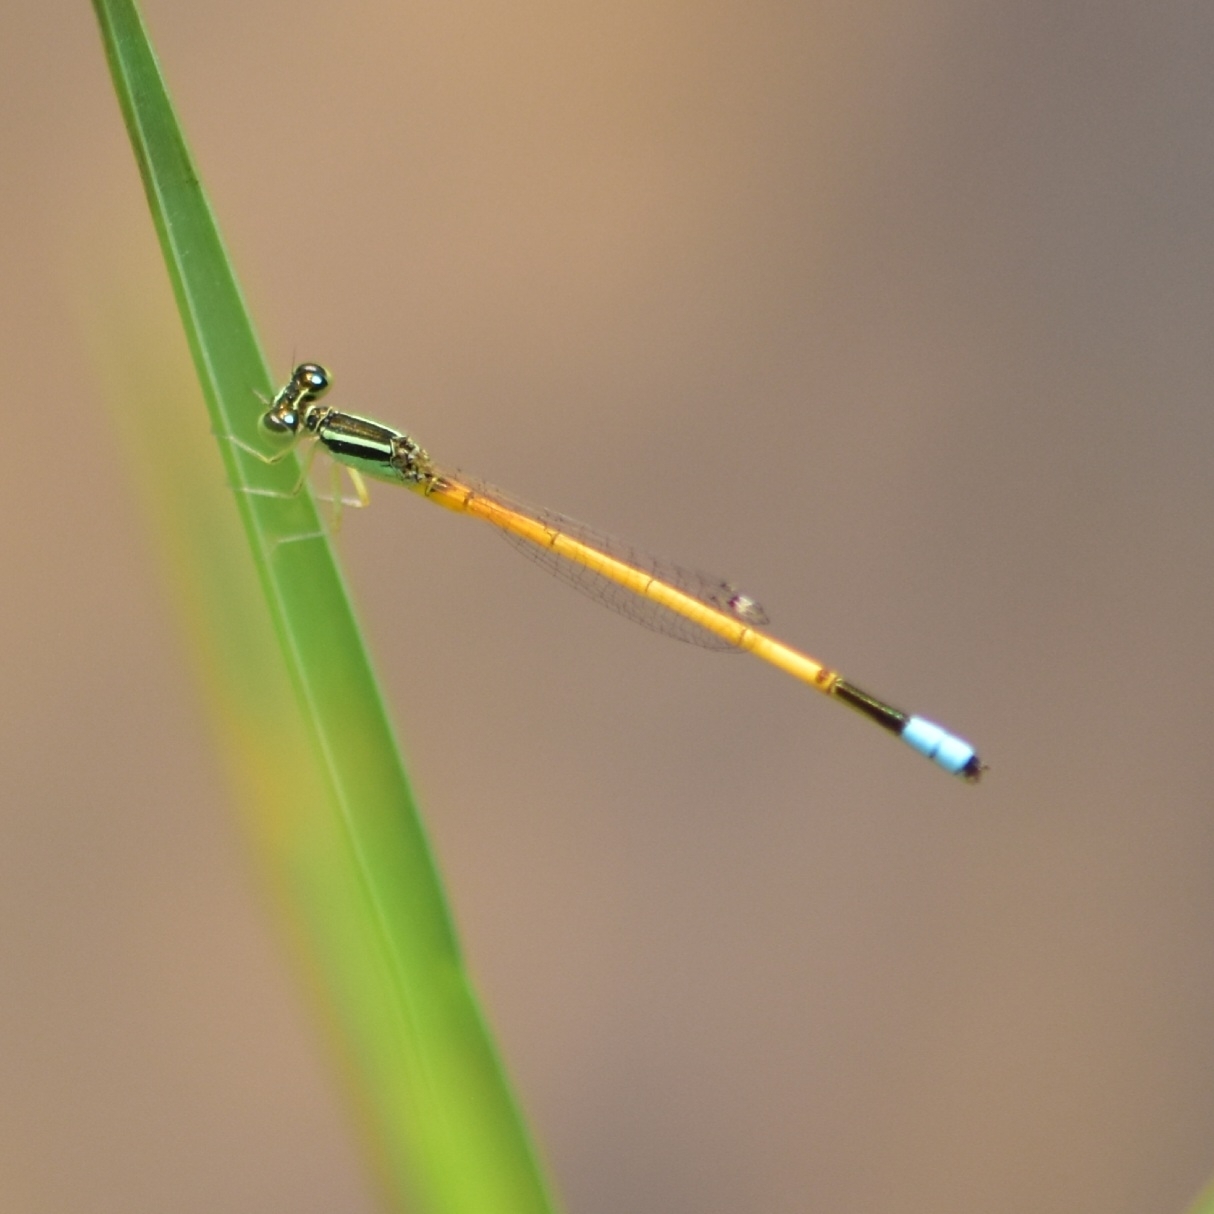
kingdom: Animalia
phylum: Arthropoda
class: Insecta
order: Odonata
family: Coenagrionidae
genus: Ischnura
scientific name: Ischnura rubilio
